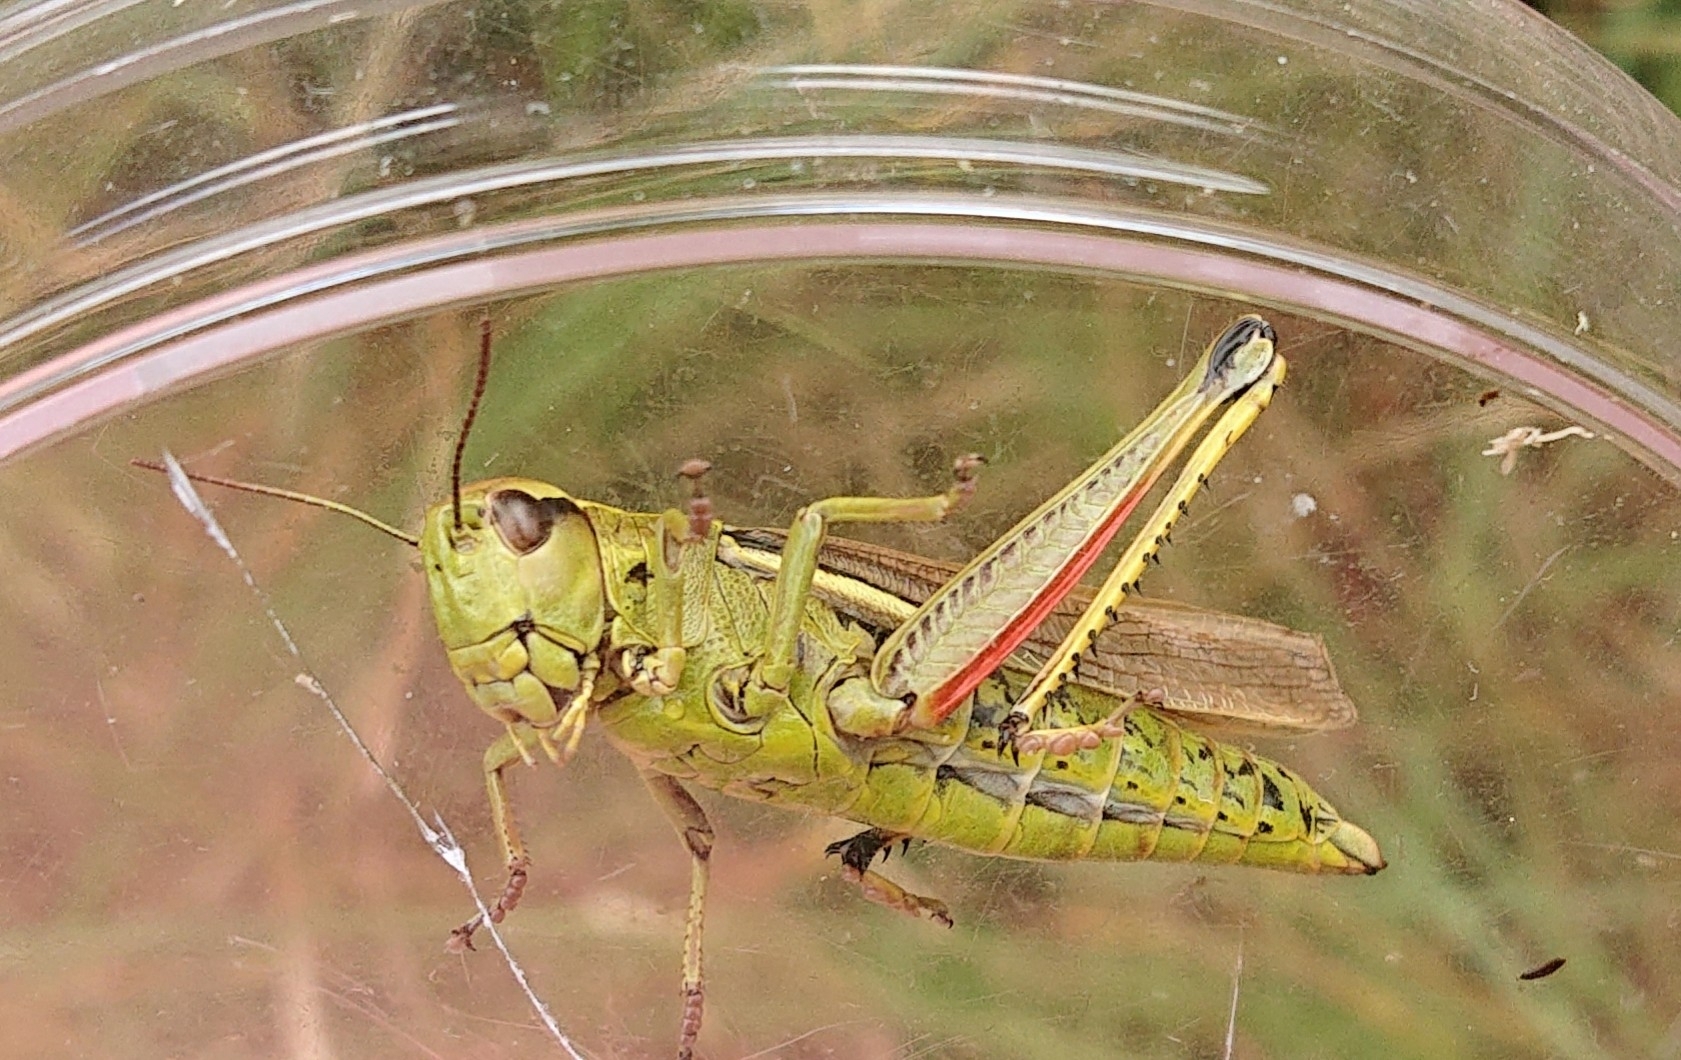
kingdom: Animalia
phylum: Arthropoda
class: Insecta
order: Orthoptera
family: Acrididae
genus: Stethophyma
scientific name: Stethophyma grossum
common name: Large marsh grasshopper
